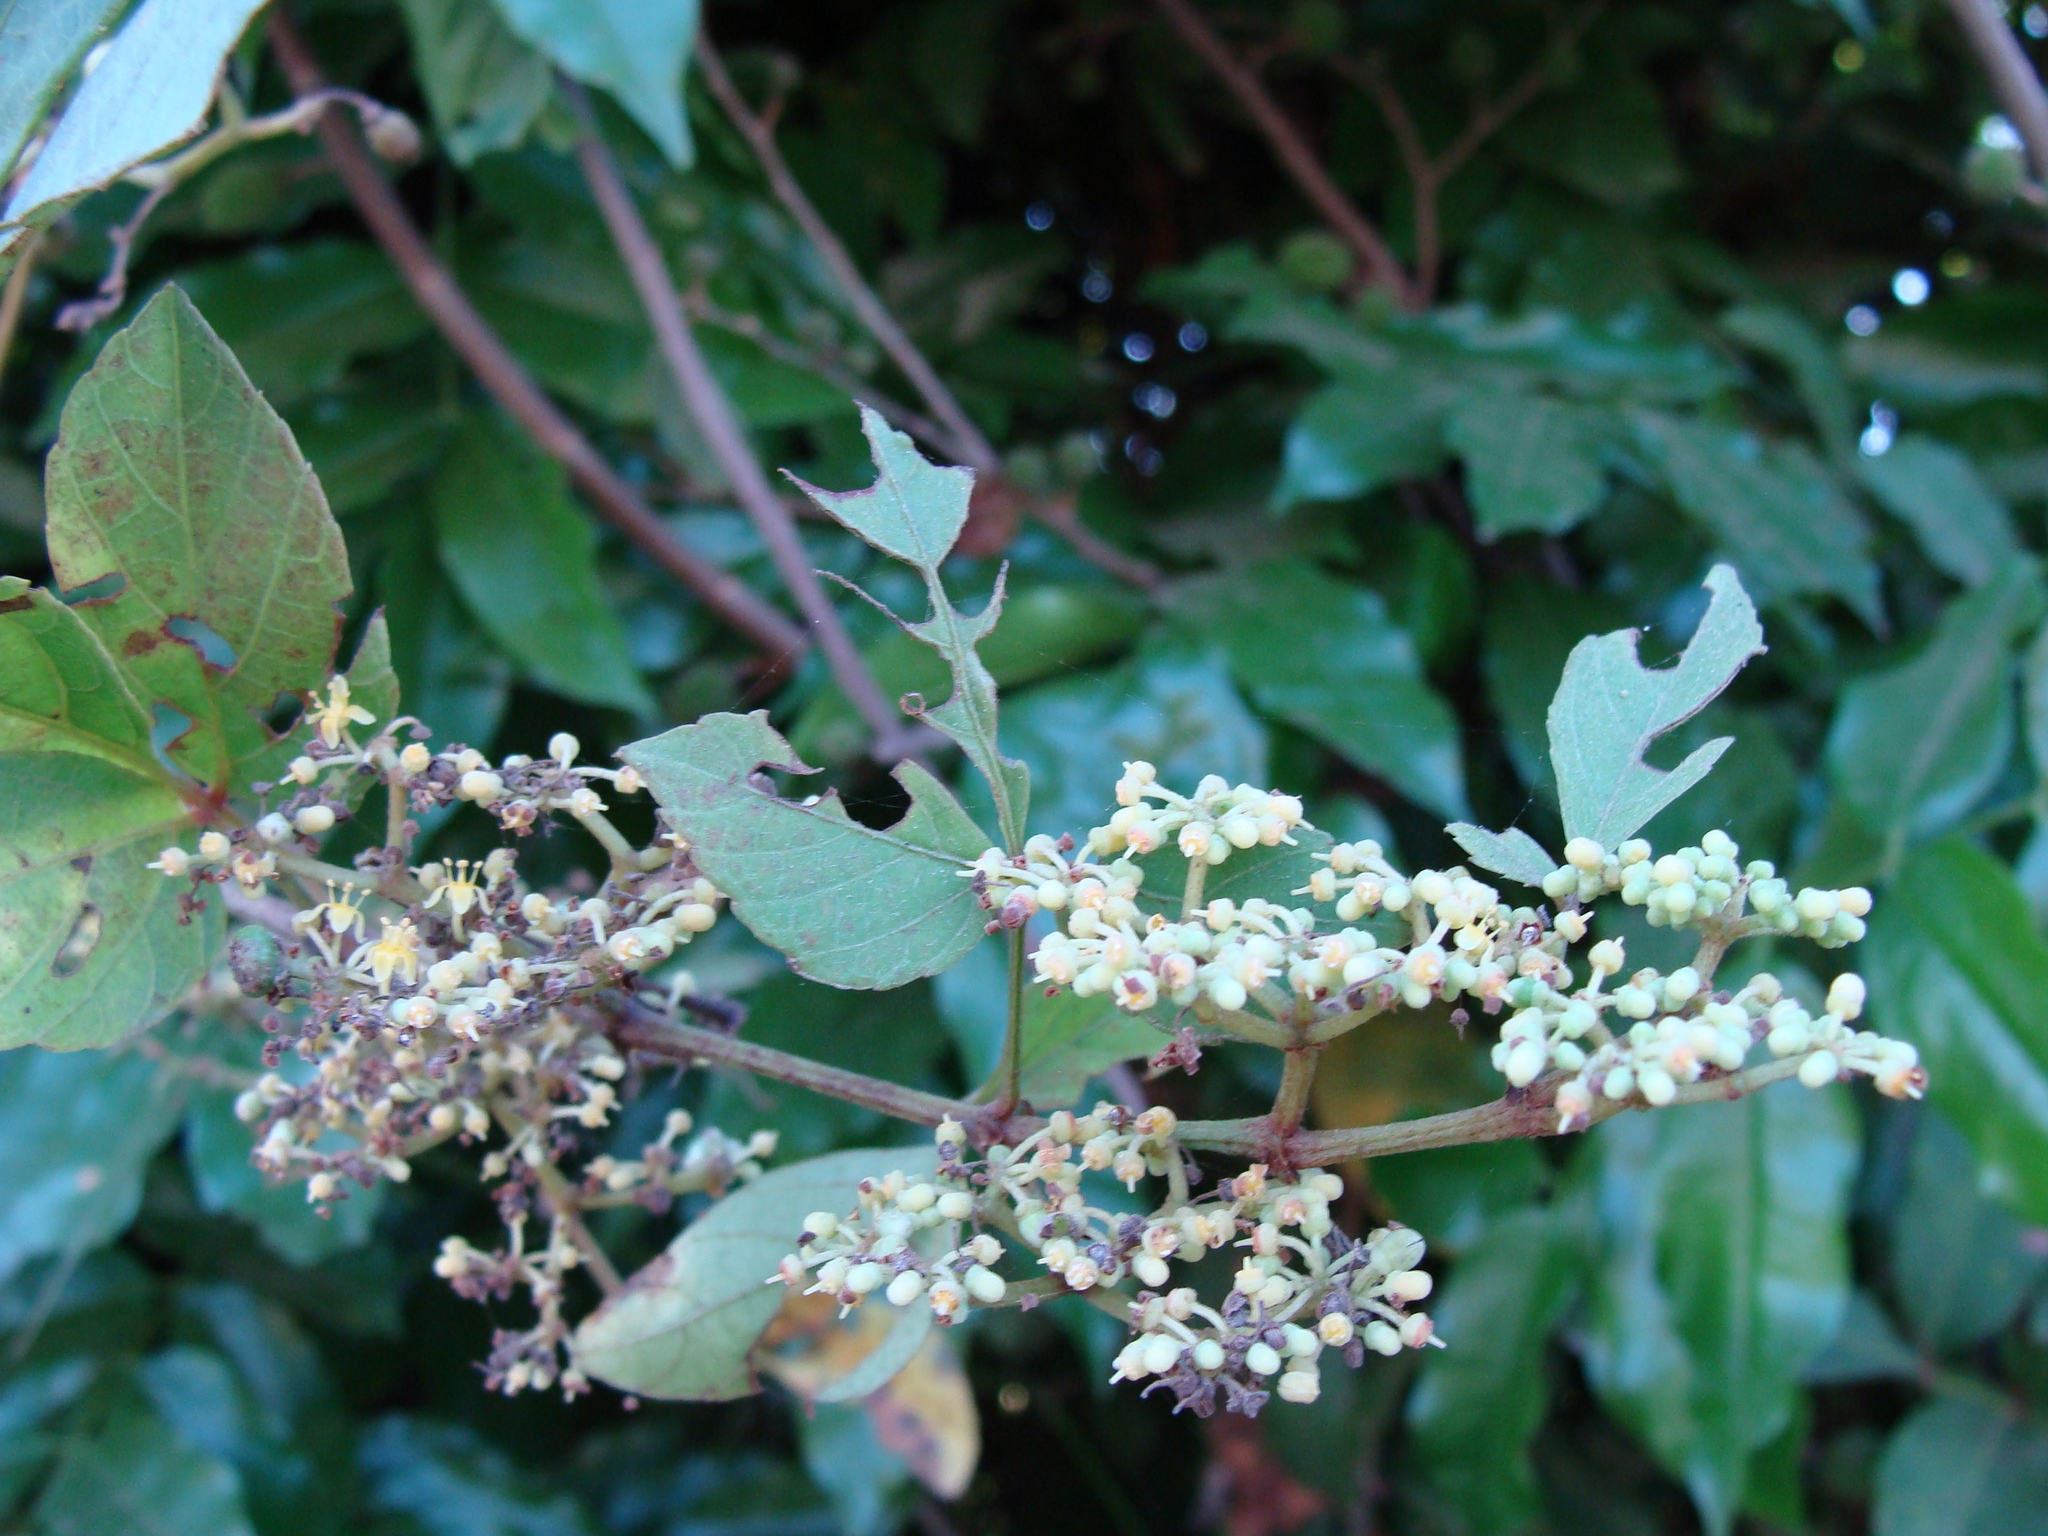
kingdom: Plantae
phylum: Tracheophyta
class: Magnoliopsida
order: Vitales
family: Vitaceae
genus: Cissus
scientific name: Cissus microcarpa
